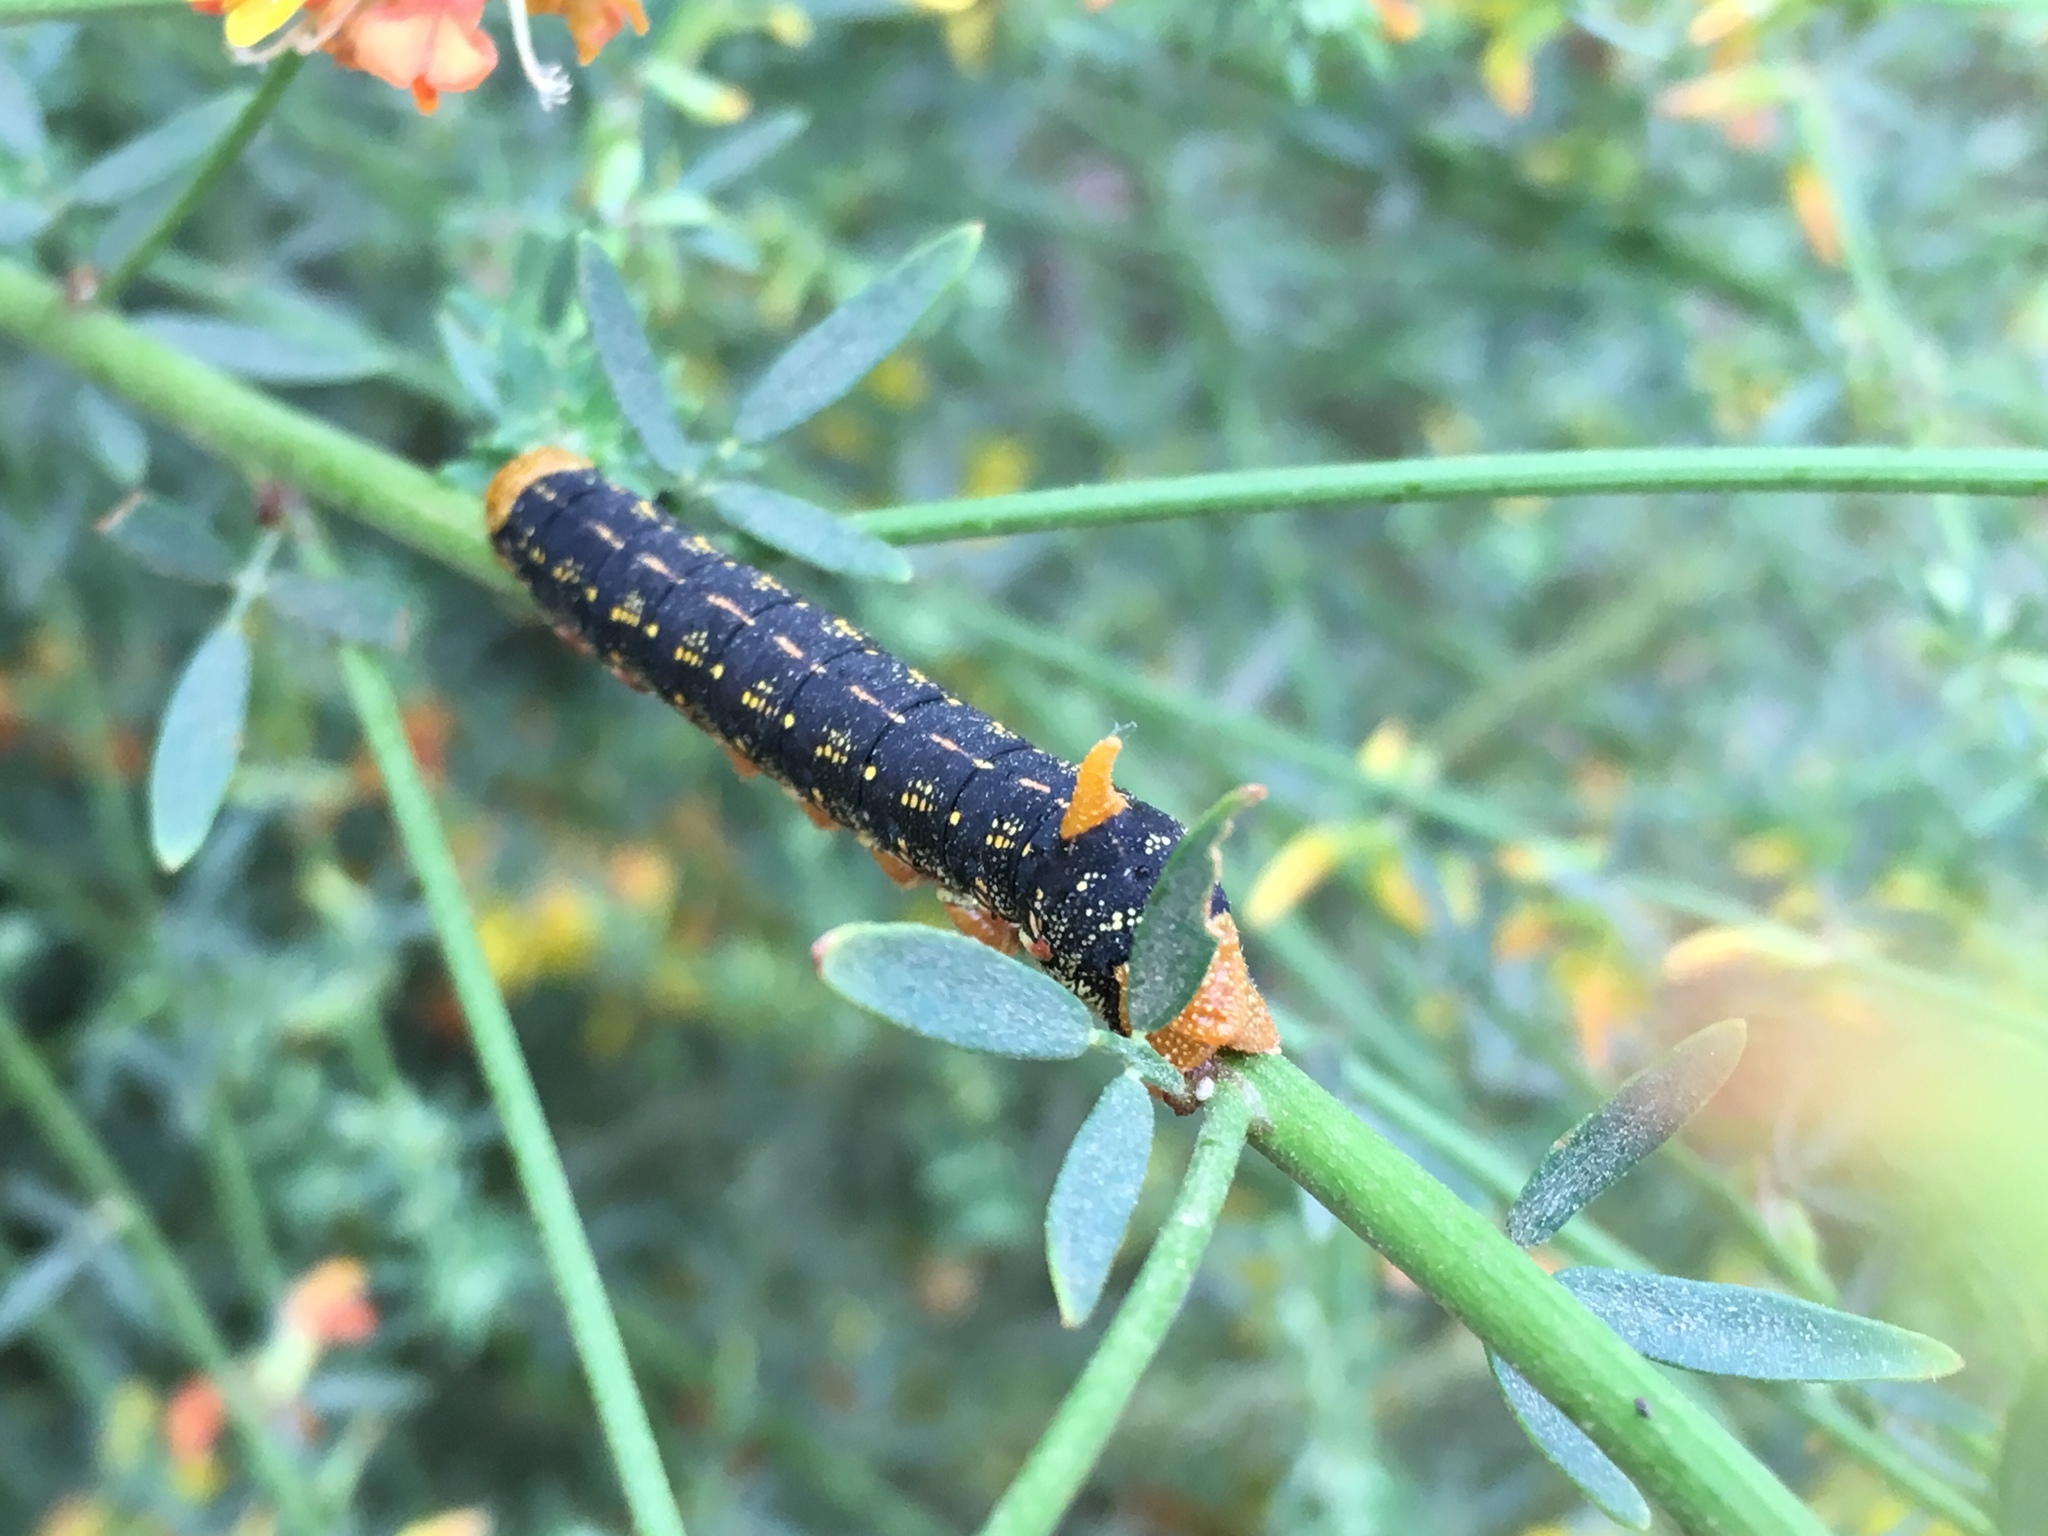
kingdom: Animalia
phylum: Arthropoda
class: Insecta
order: Lepidoptera
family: Sphingidae
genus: Hyles
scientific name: Hyles lineata
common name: White-lined sphinx
